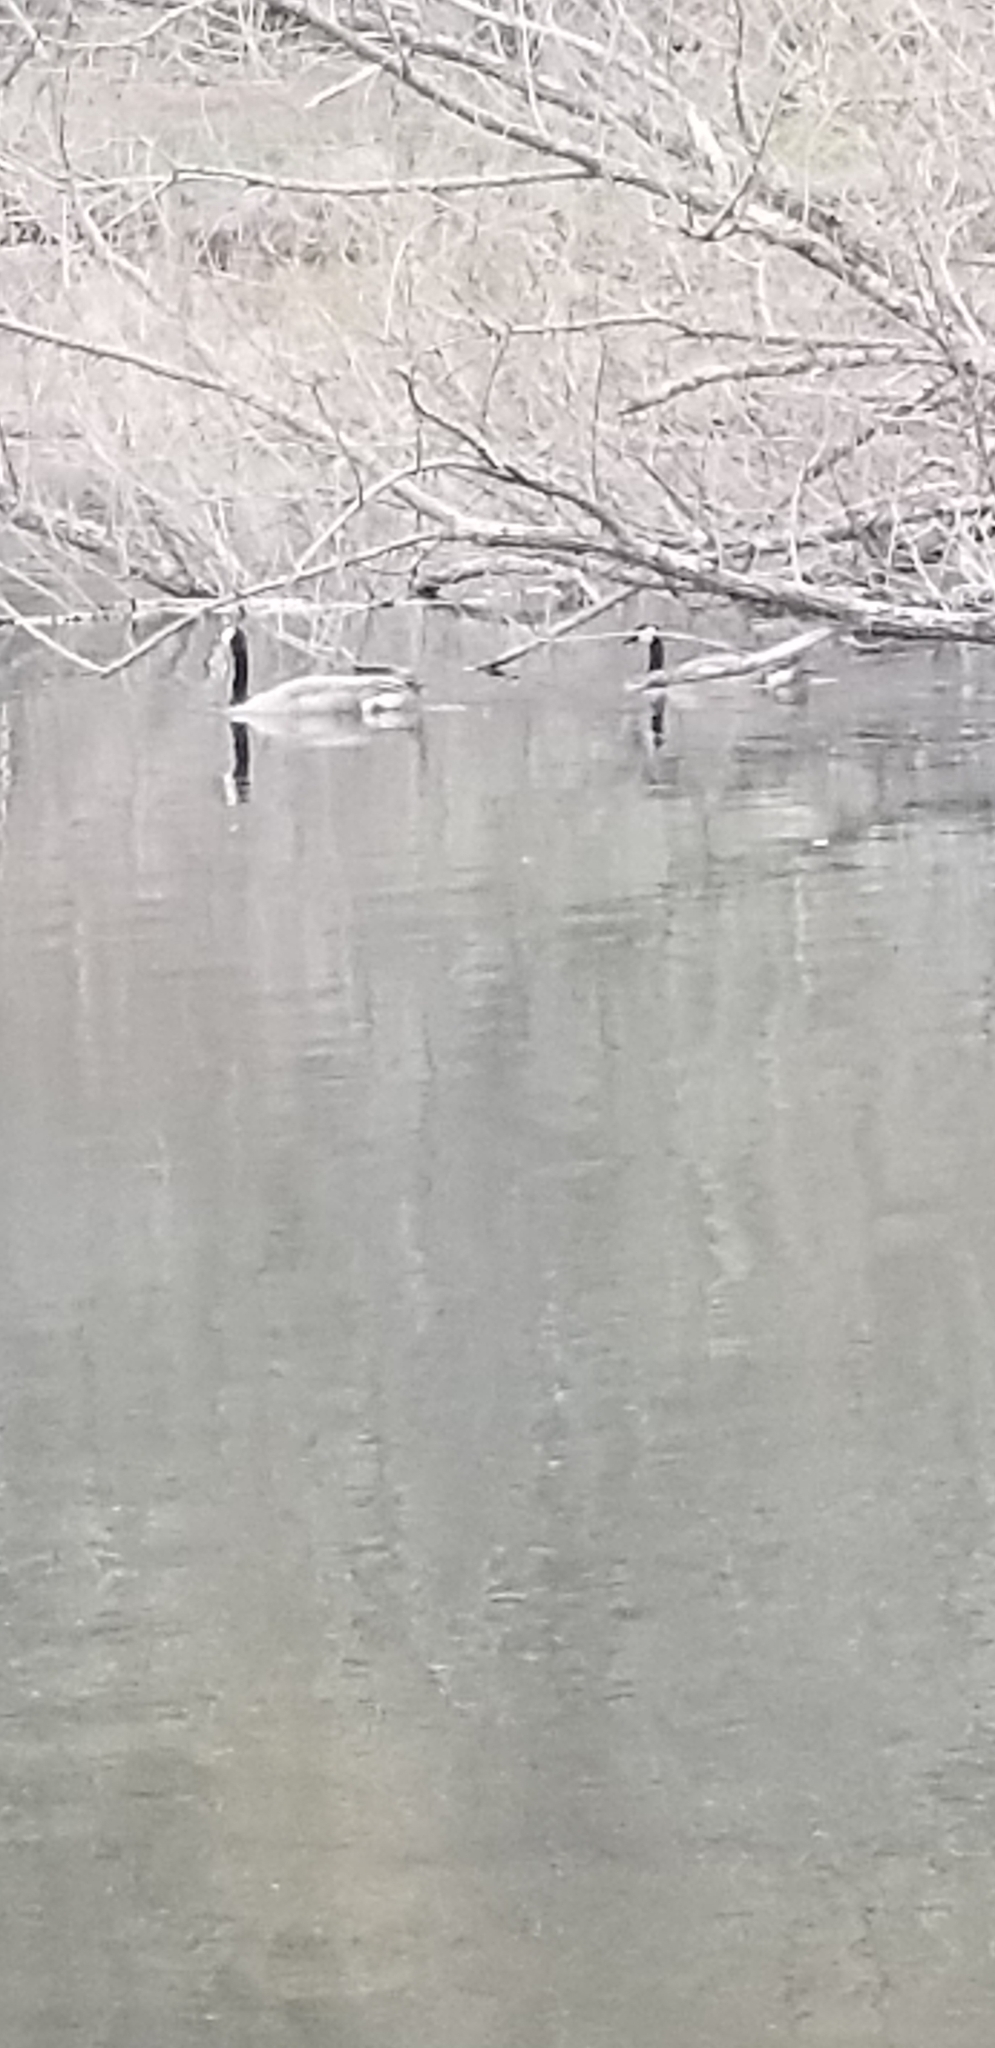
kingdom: Animalia
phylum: Chordata
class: Aves
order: Anseriformes
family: Anatidae
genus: Branta
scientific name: Branta canadensis
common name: Canada goose
